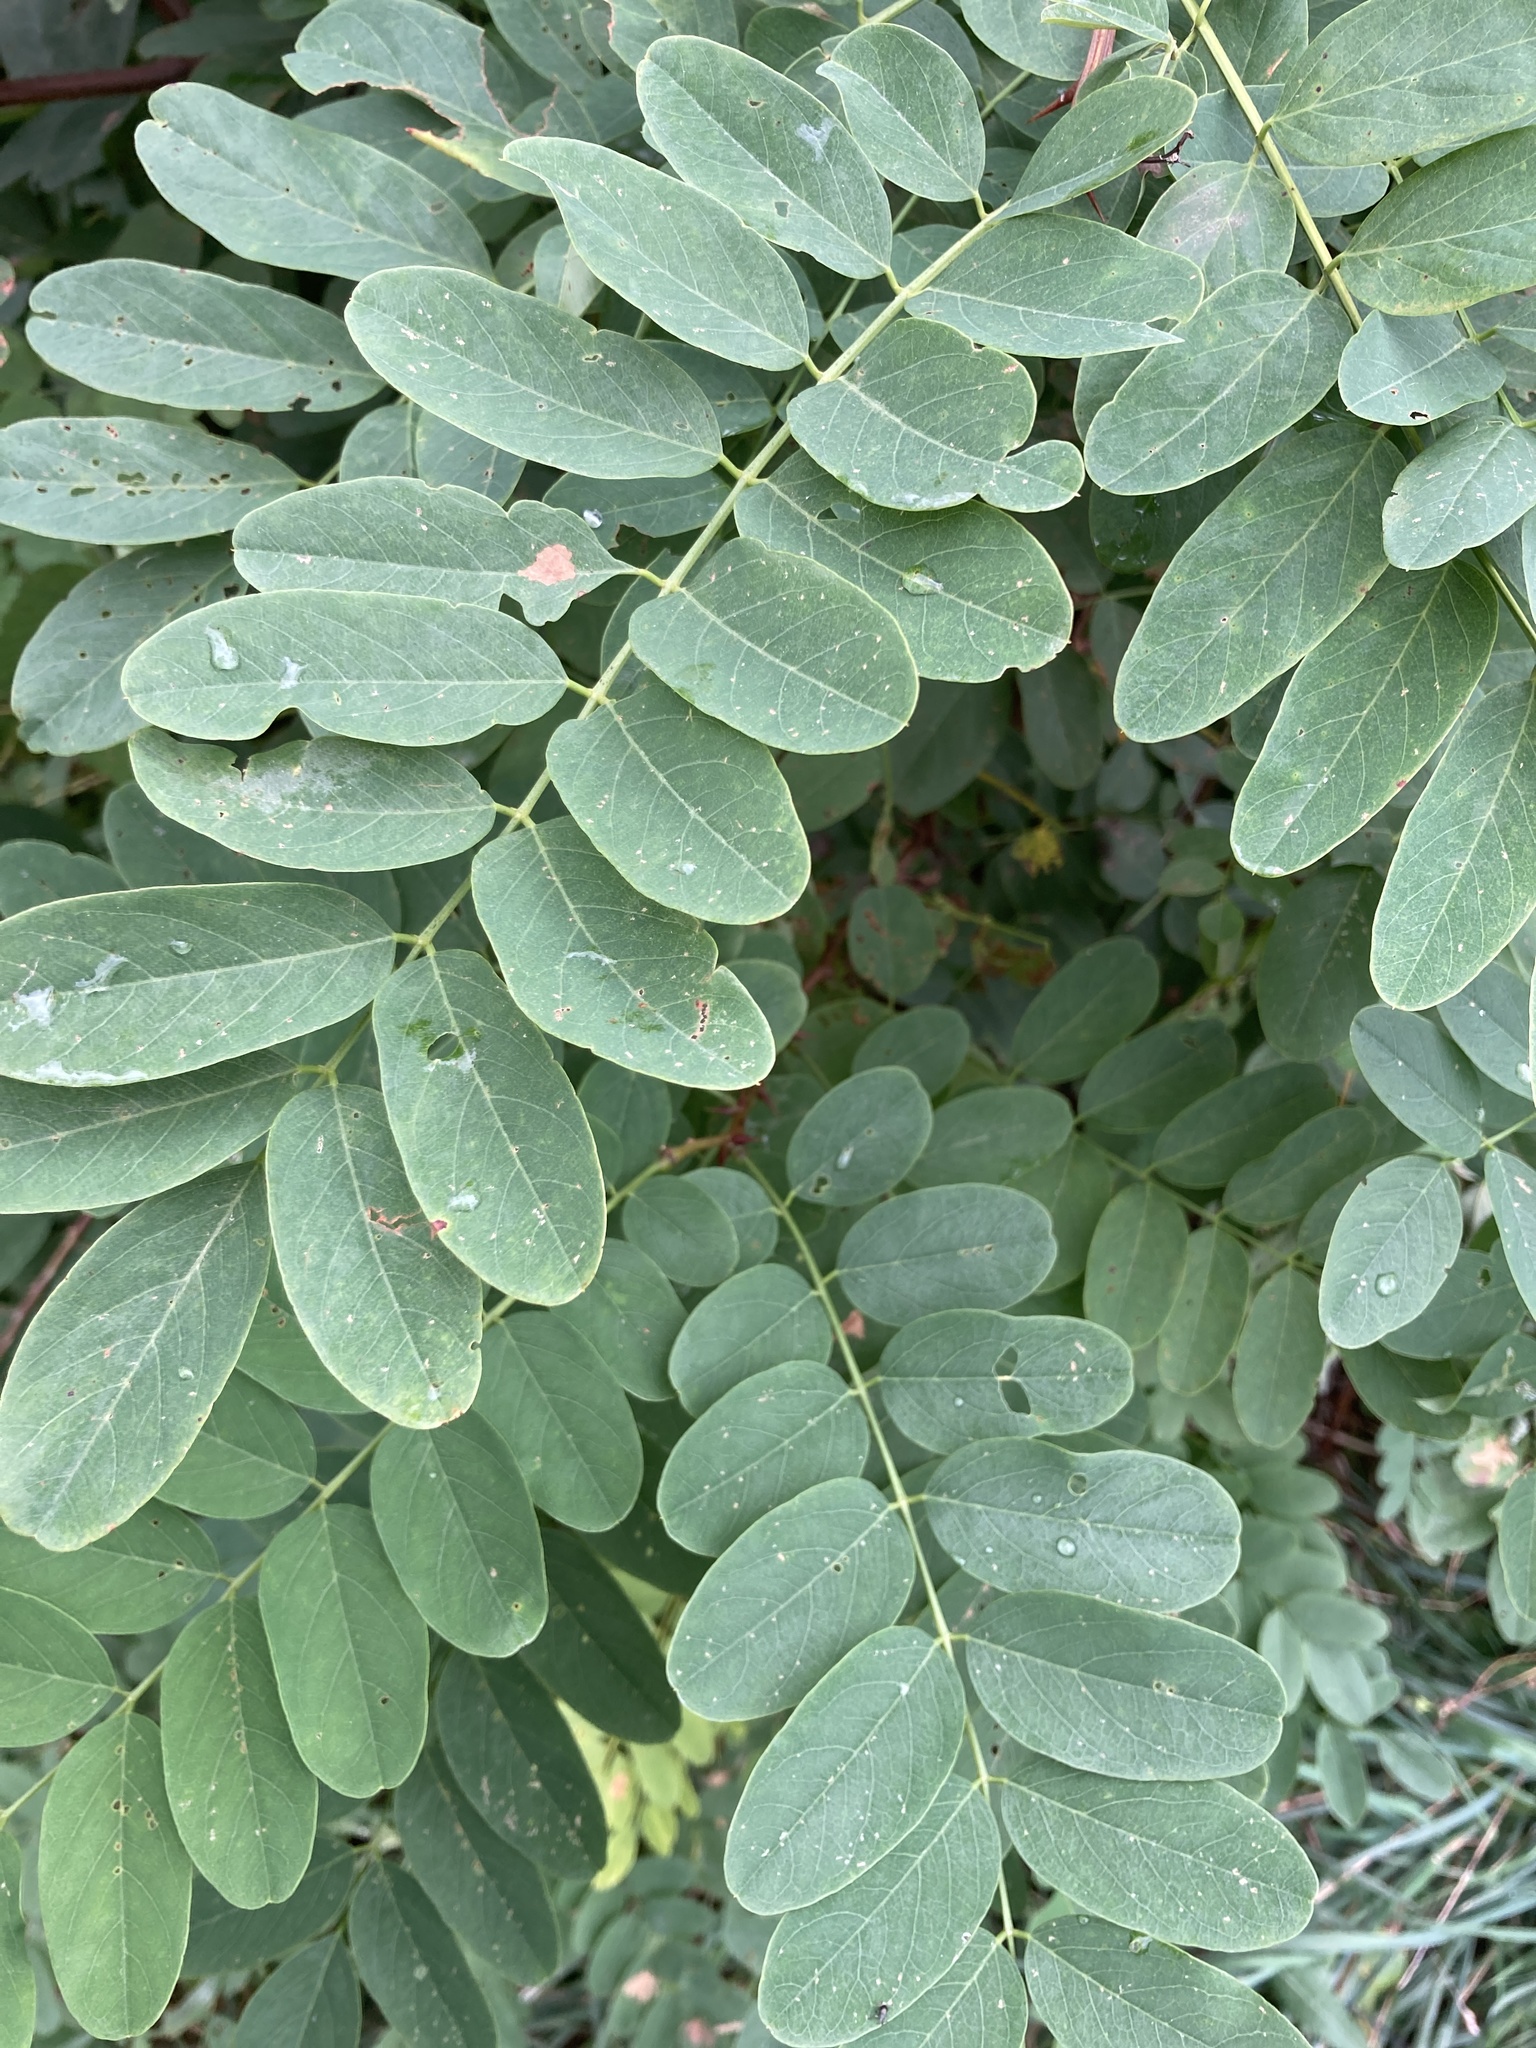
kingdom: Plantae
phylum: Tracheophyta
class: Magnoliopsida
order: Fabales
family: Fabaceae
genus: Robinia
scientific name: Robinia pseudoacacia
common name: Black locust
